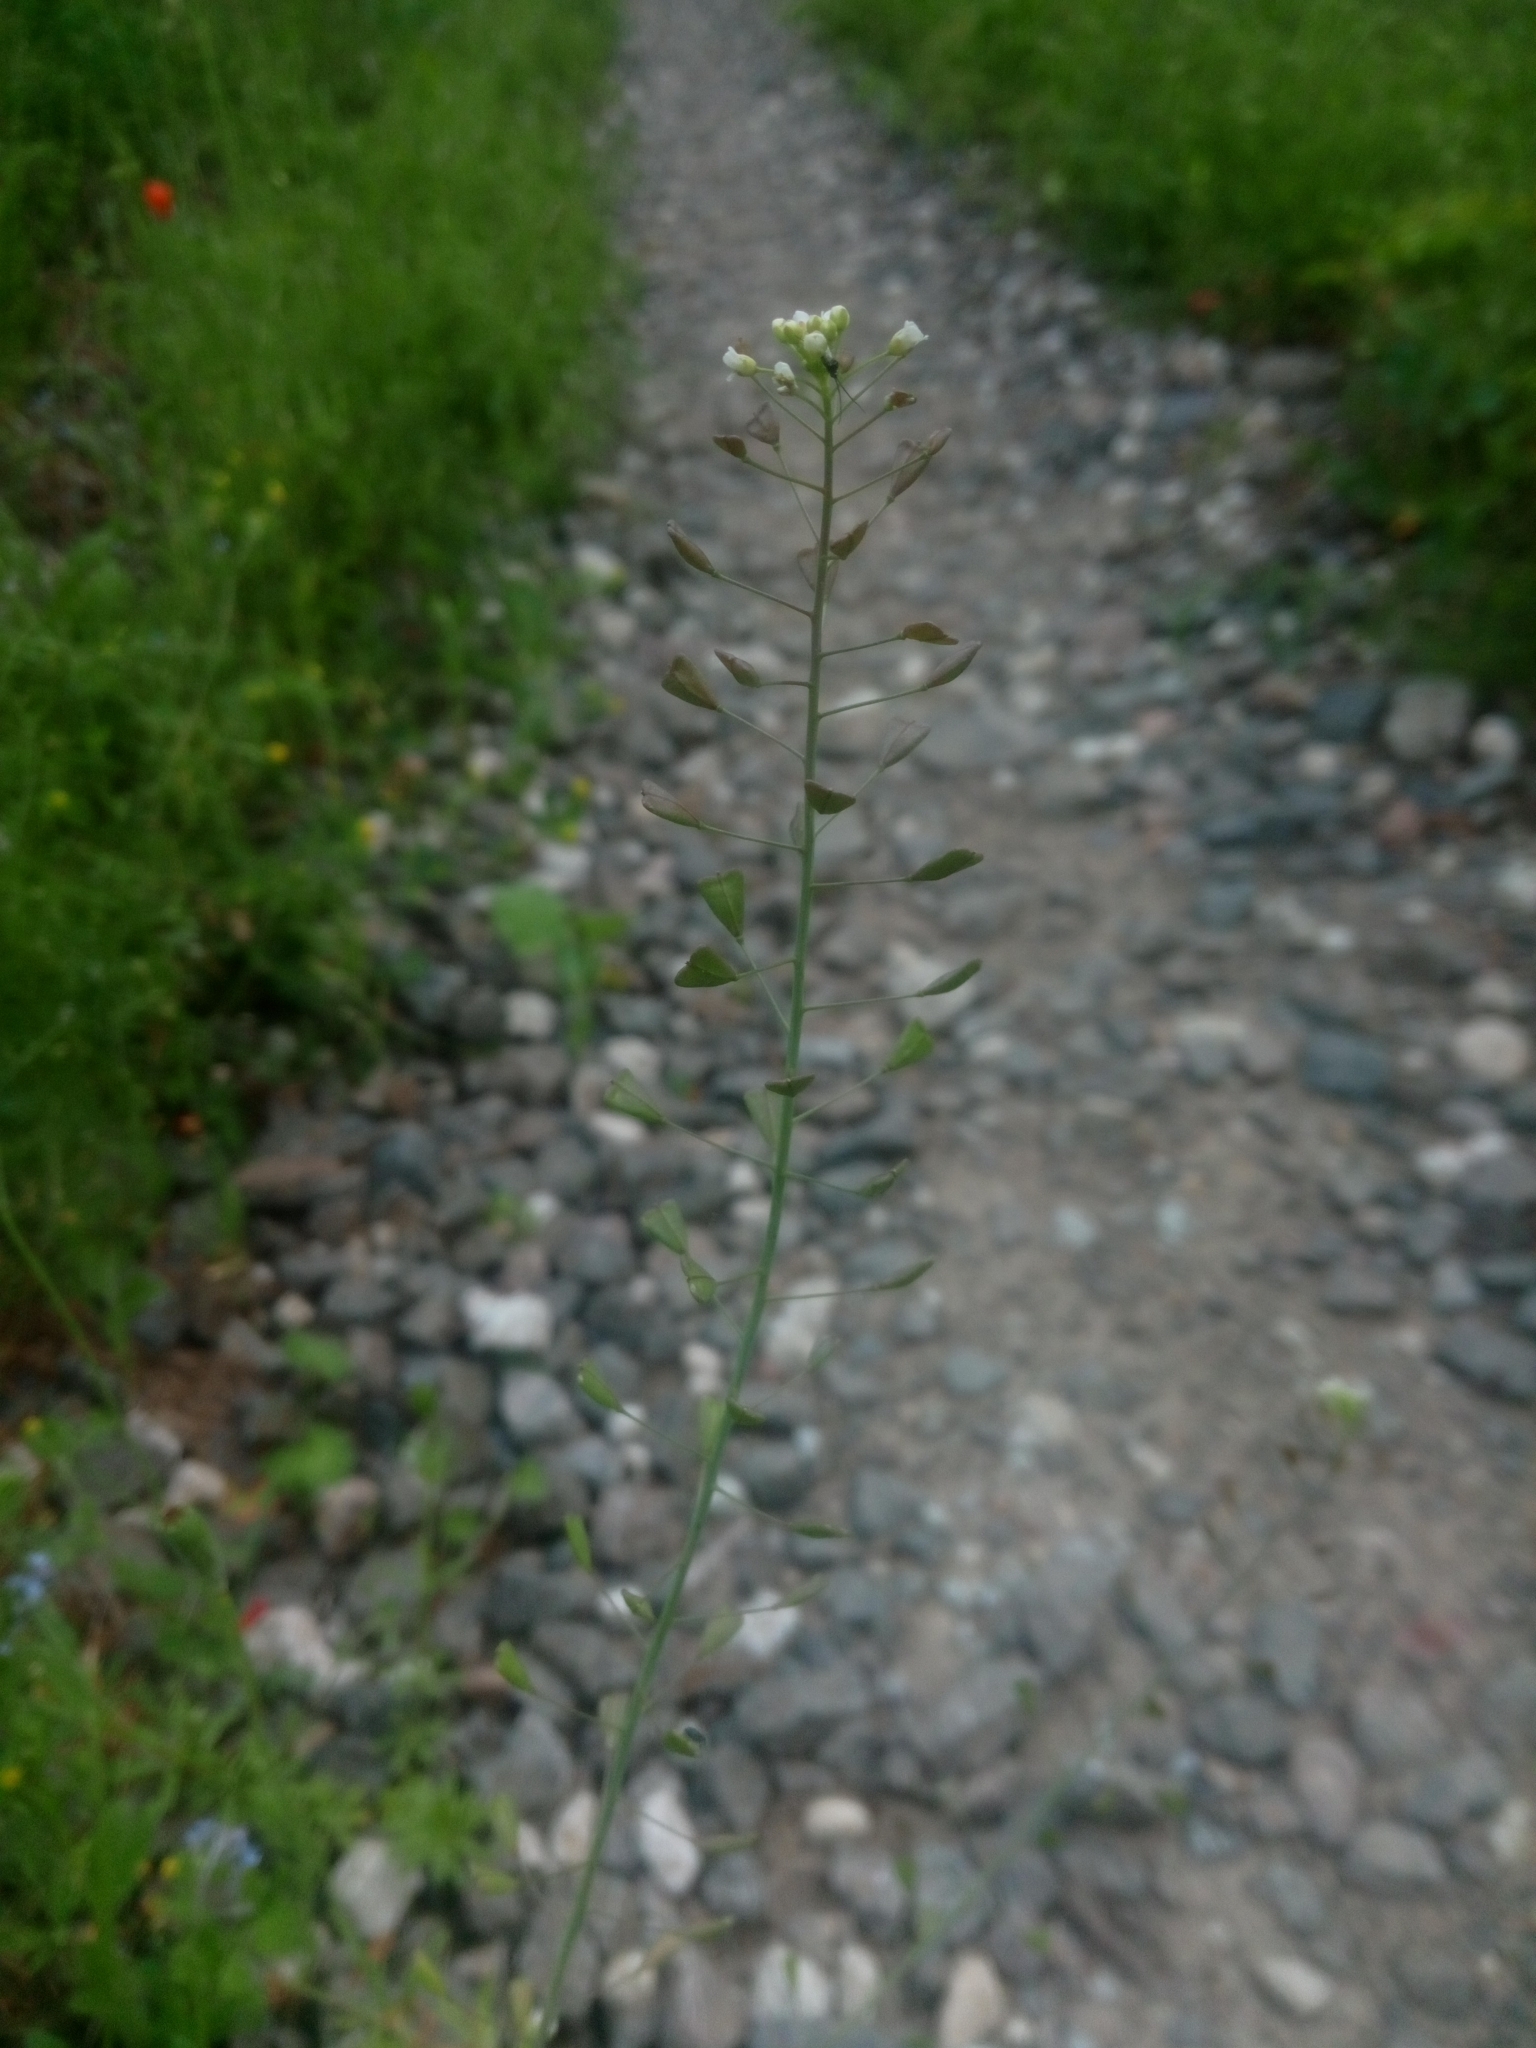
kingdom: Plantae
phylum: Tracheophyta
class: Magnoliopsida
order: Brassicales
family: Brassicaceae
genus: Capsella
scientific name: Capsella bursa-pastoris
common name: Shepherd's purse
